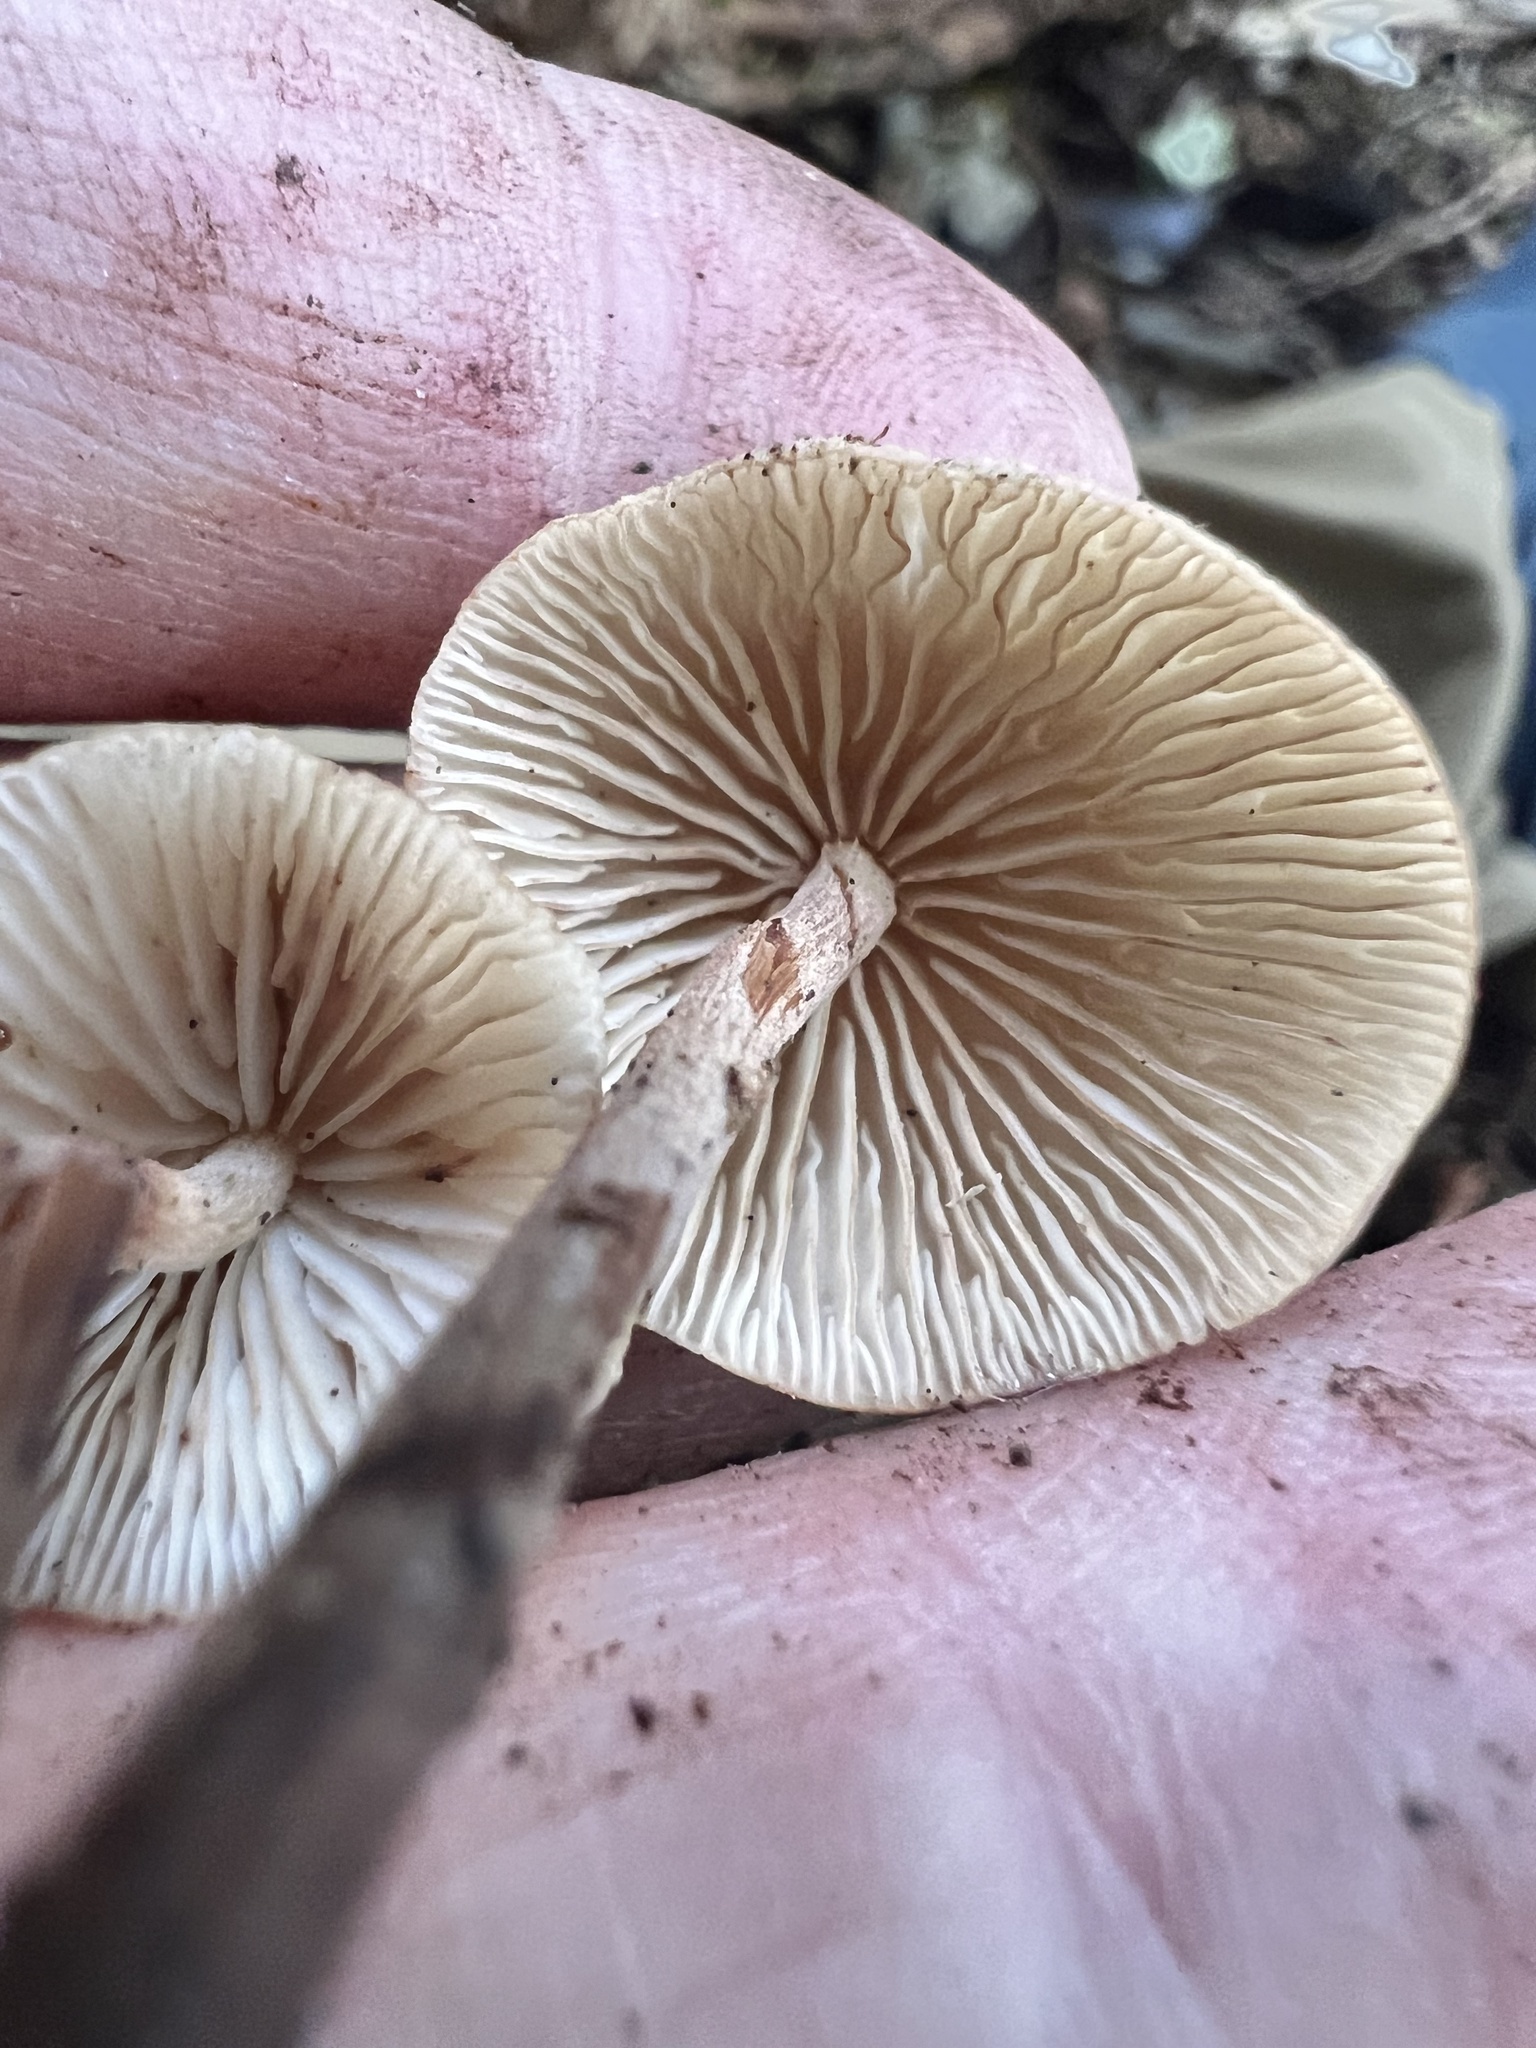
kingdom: Fungi
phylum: Basidiomycota
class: Agaricomycetes
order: Agaricales
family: Omphalotaceae
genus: Collybiopsis
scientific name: Collybiopsis subpruinosa
